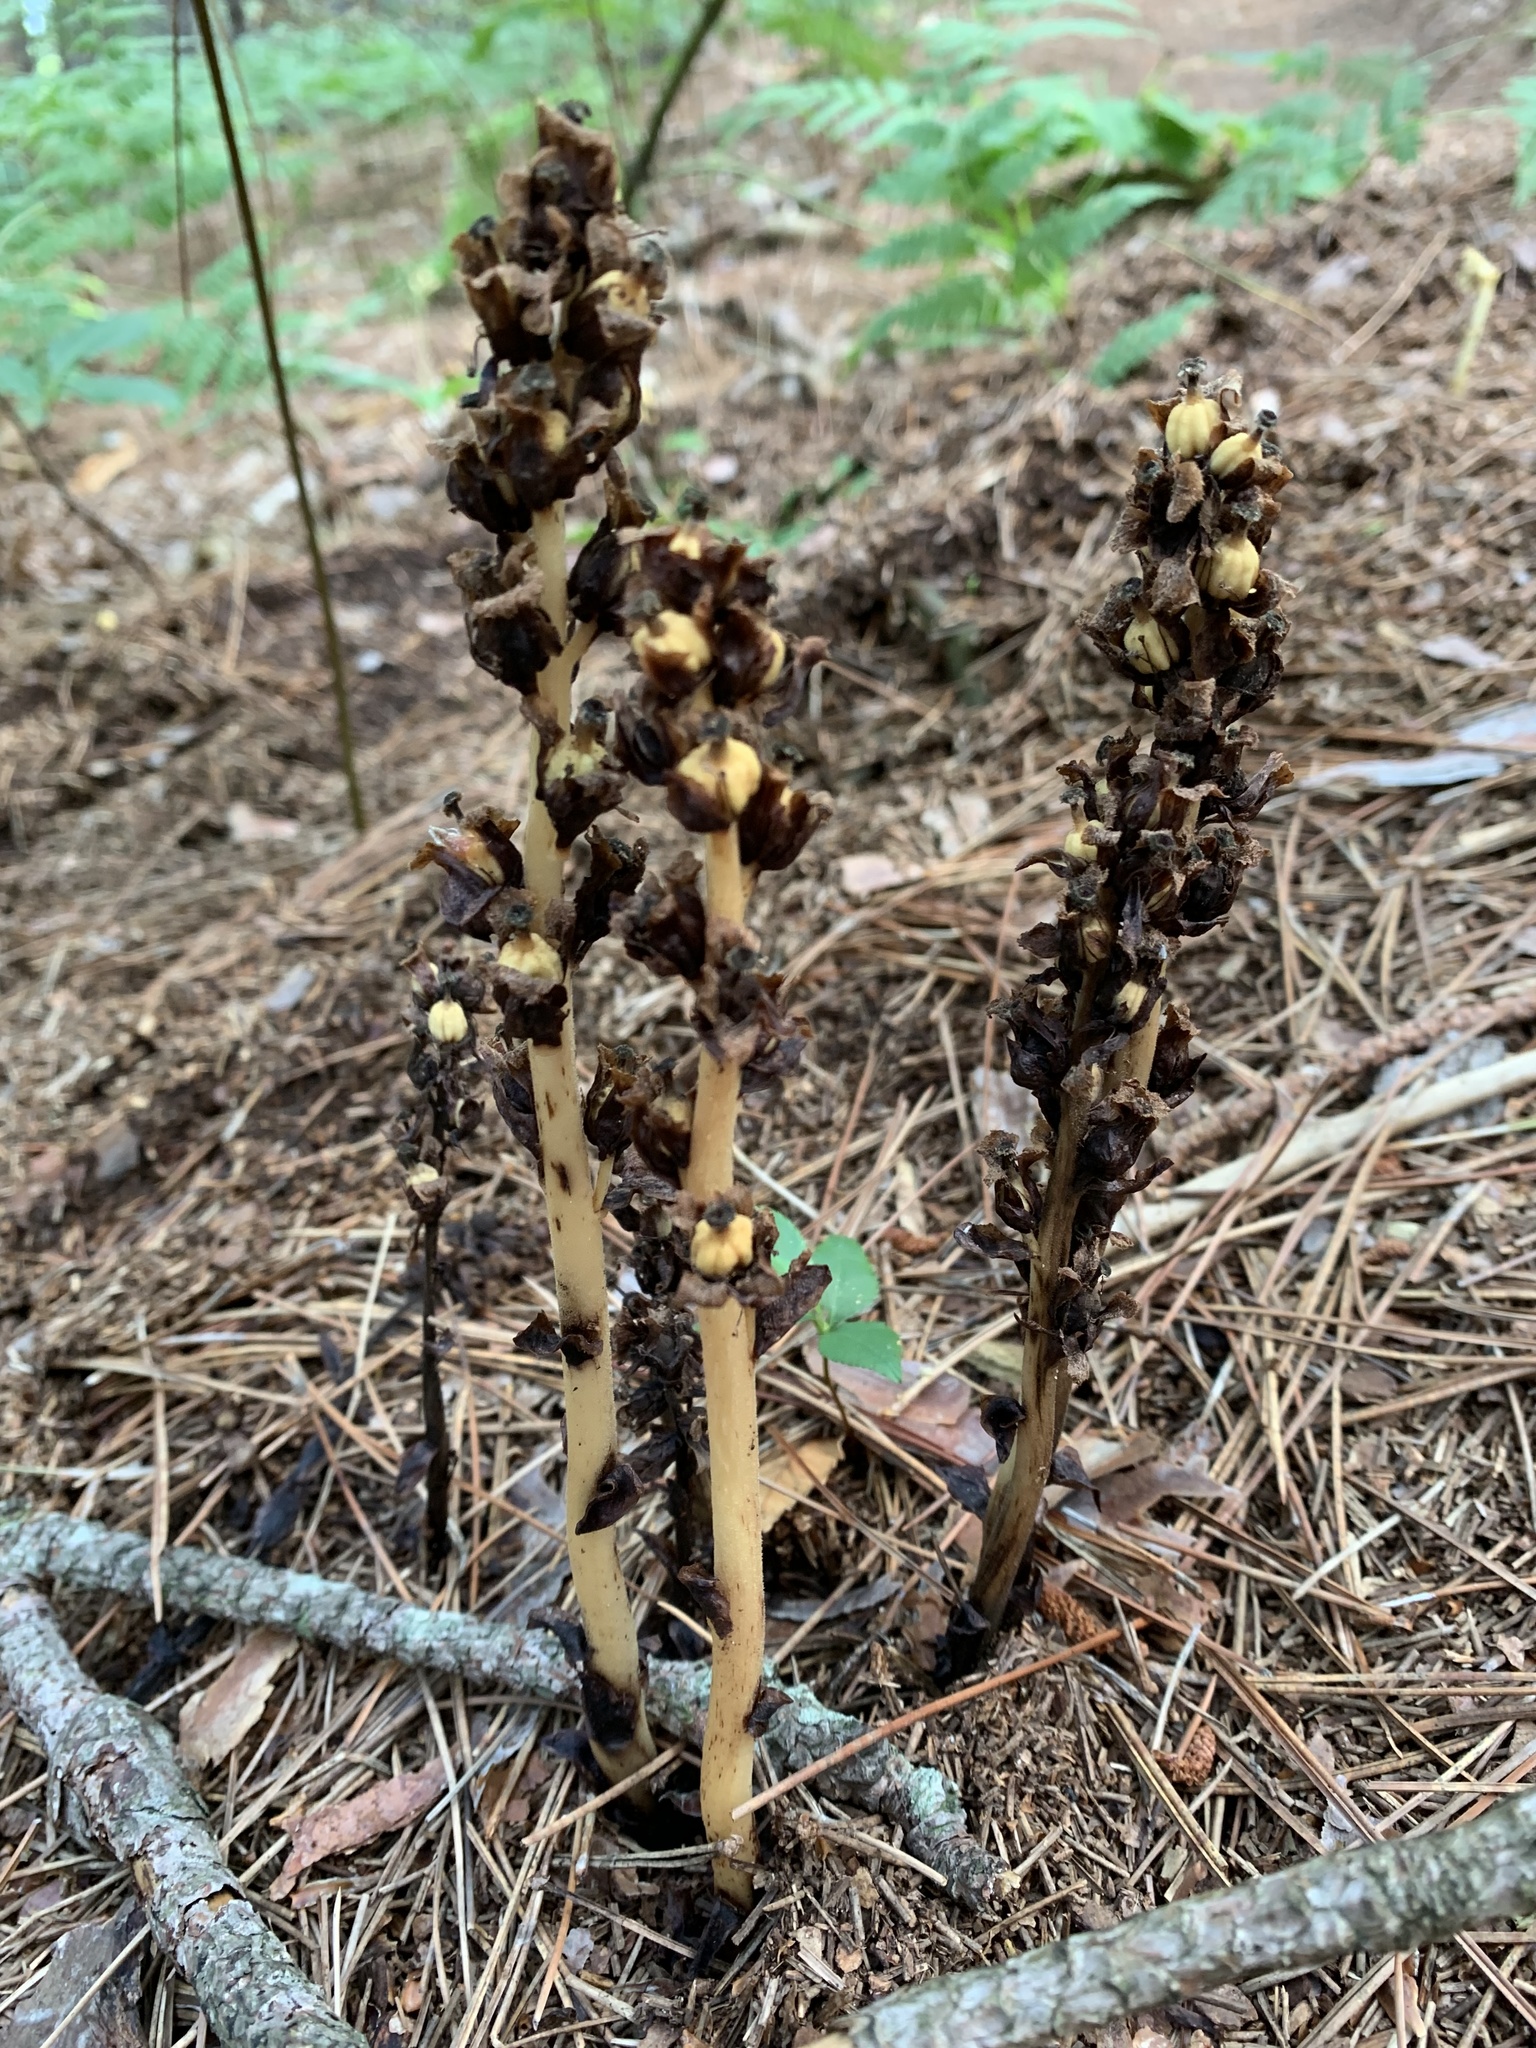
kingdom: Plantae
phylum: Tracheophyta
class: Magnoliopsida
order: Ericales
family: Ericaceae
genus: Hypopitys
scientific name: Hypopitys monotropa
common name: Yellow bird's-nest
